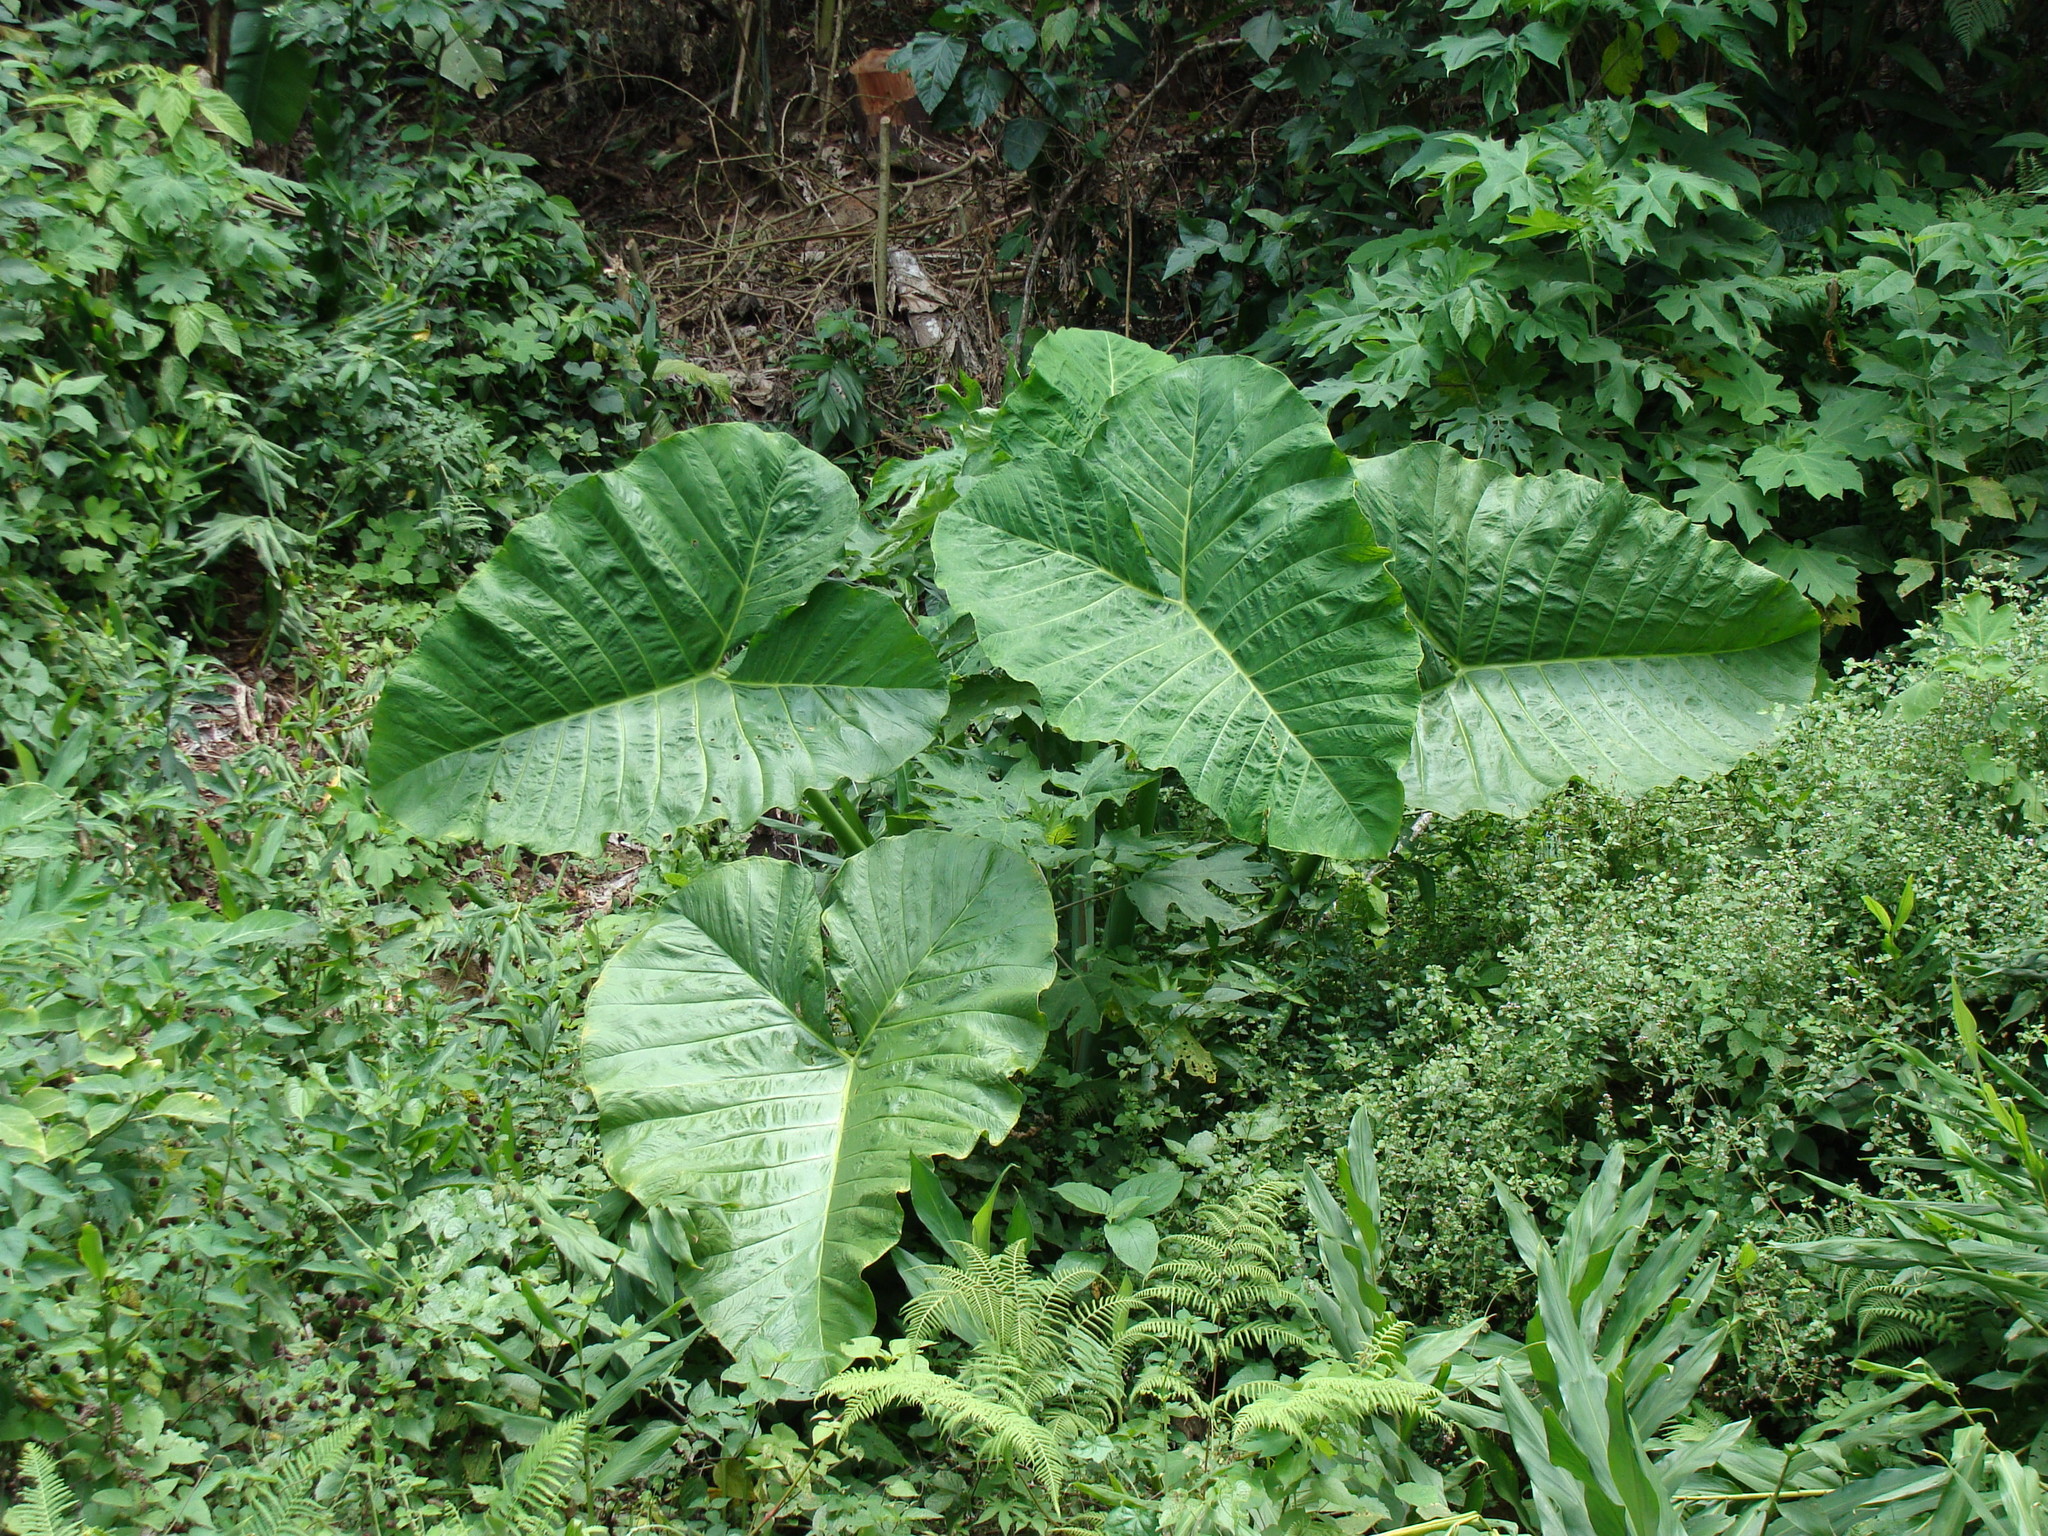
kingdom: Plantae
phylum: Tracheophyta
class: Liliopsida
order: Alismatales
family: Araceae
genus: Xanthosoma
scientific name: Xanthosoma robustum
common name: Capote
